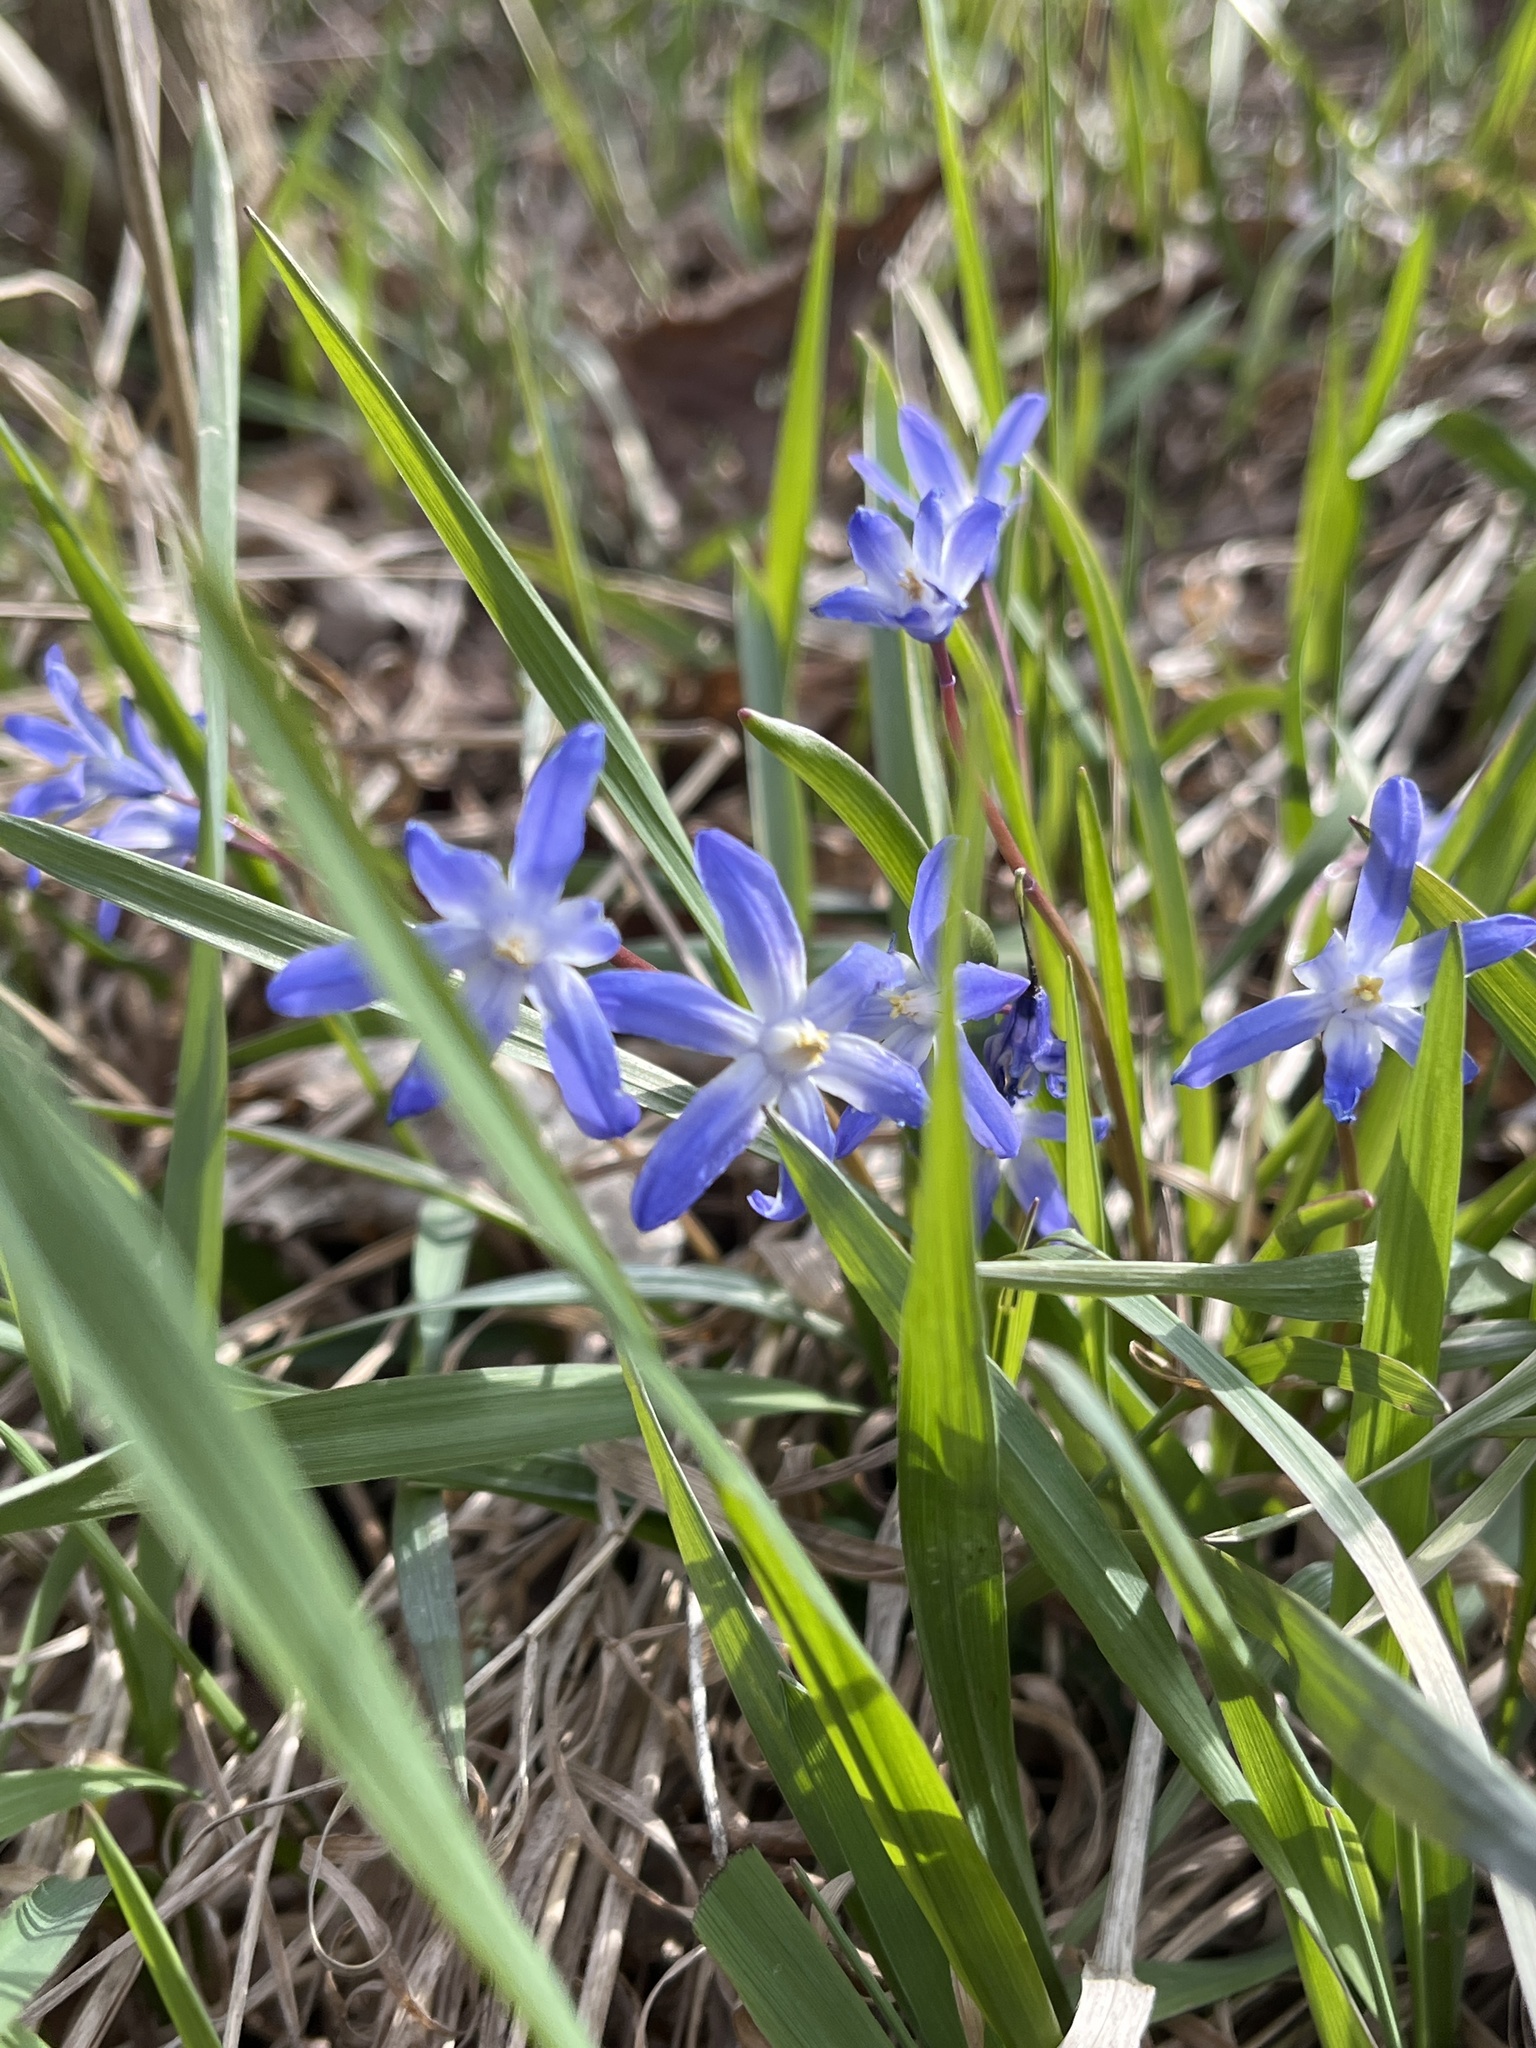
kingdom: Plantae
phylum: Tracheophyta
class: Liliopsida
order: Asparagales
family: Asparagaceae
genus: Scilla
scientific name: Scilla forbesii
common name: Glory-of-the-snow
